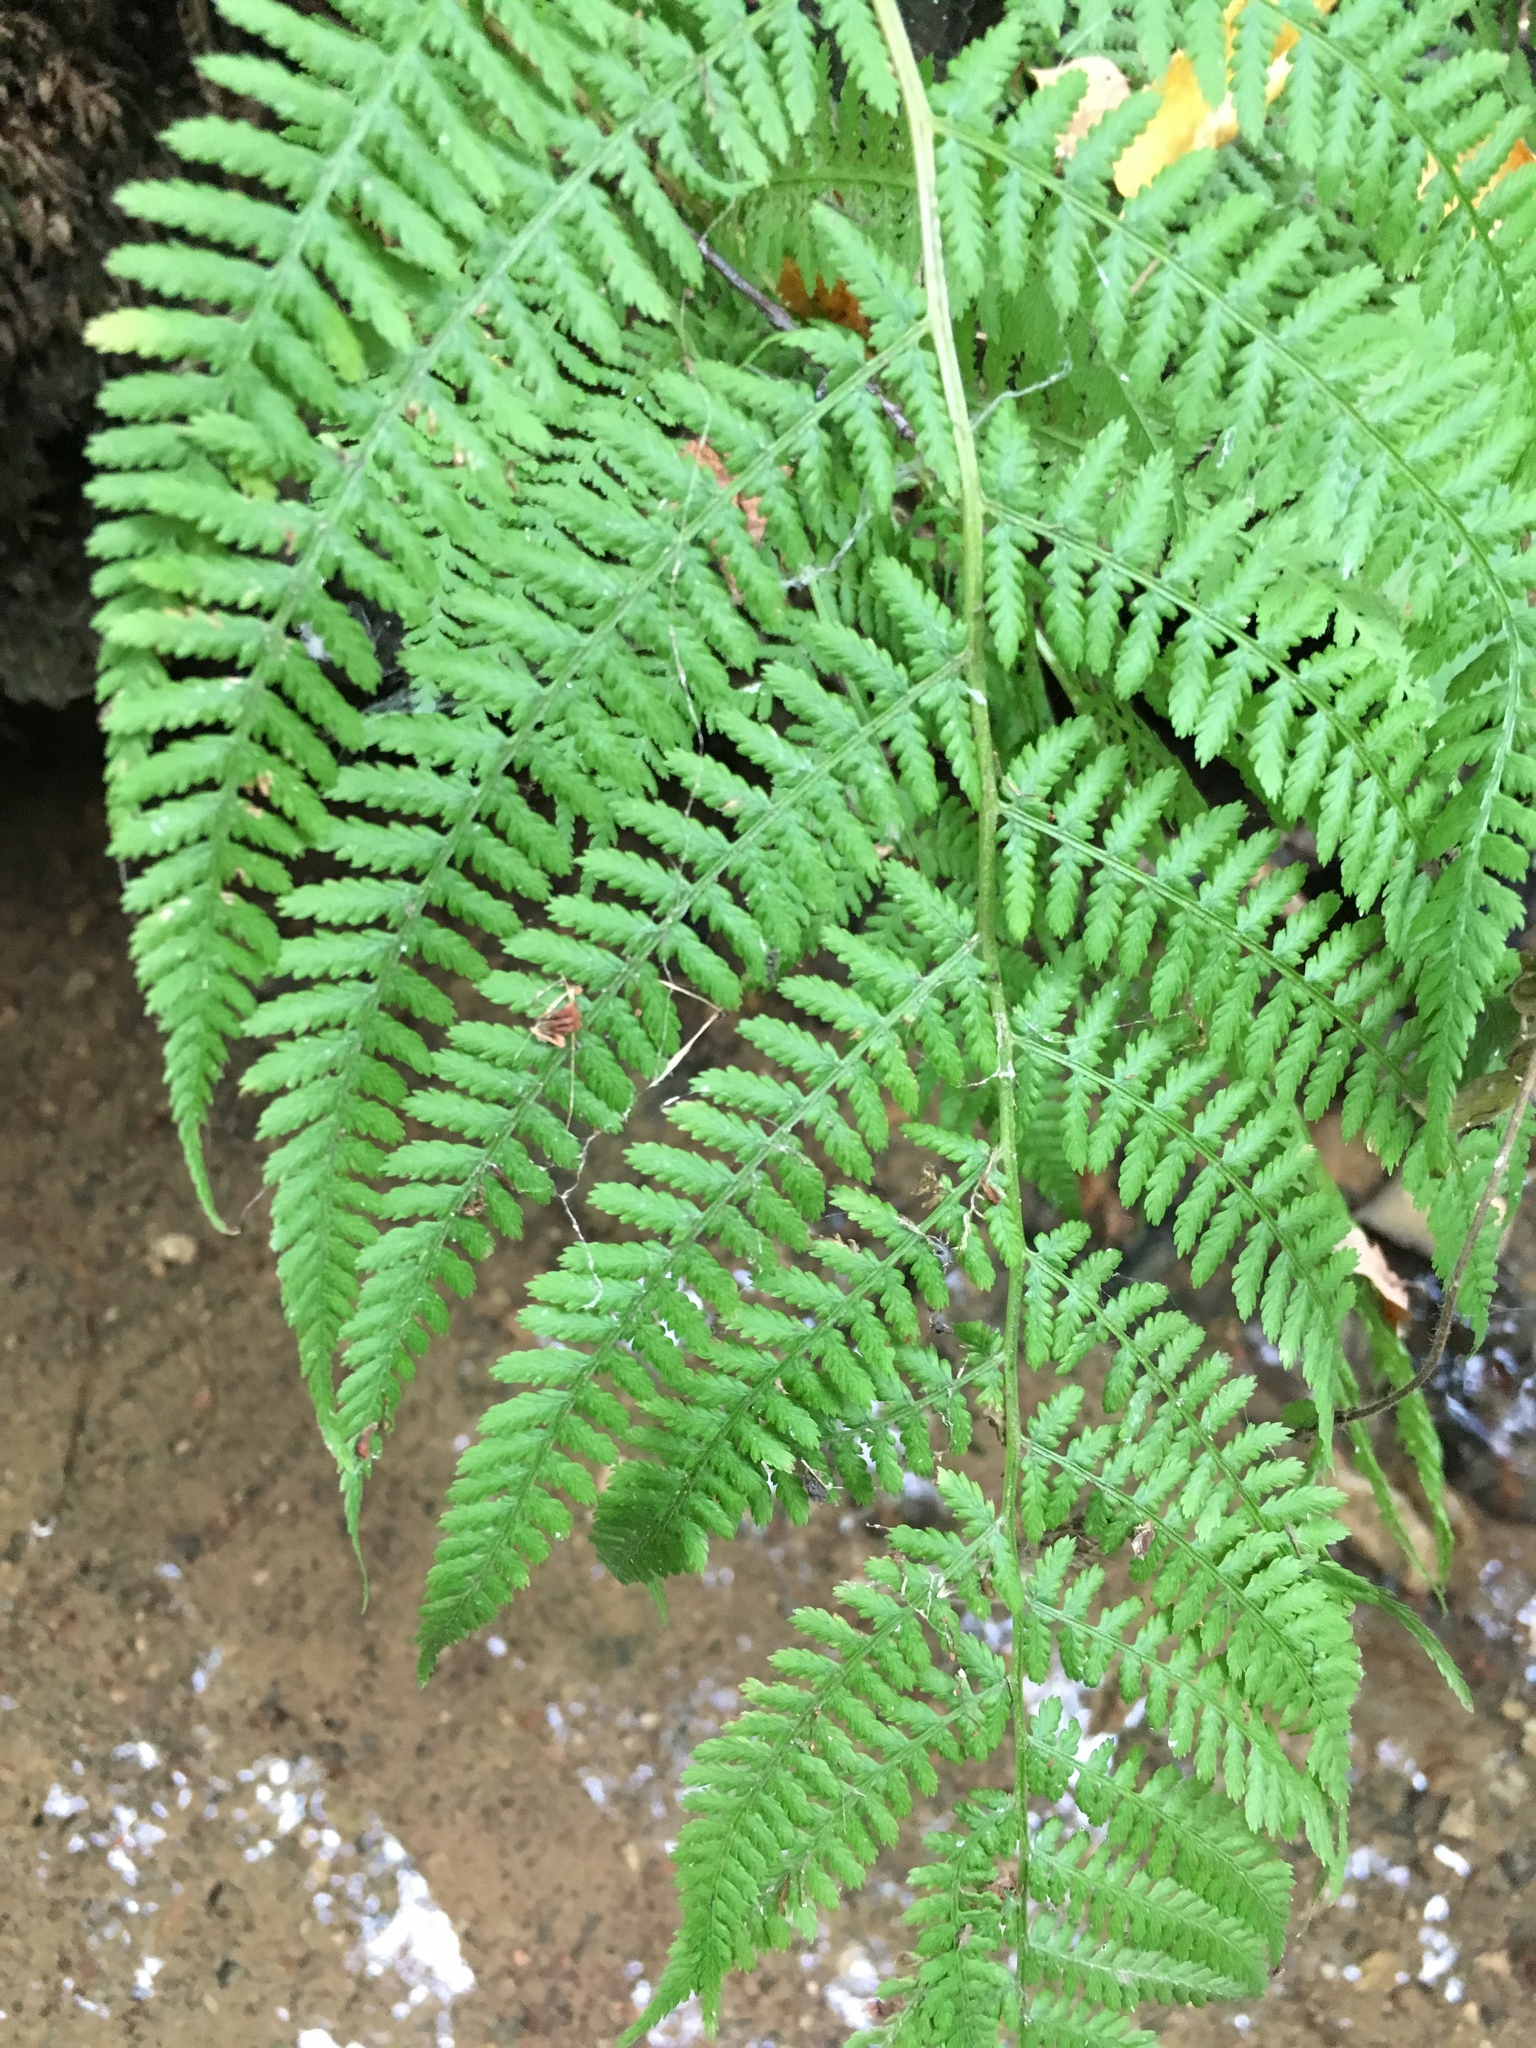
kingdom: Plantae
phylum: Tracheophyta
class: Polypodiopsida
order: Polypodiales
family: Athyriaceae
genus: Athyrium
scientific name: Athyrium filix-femina
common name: Lady fern
